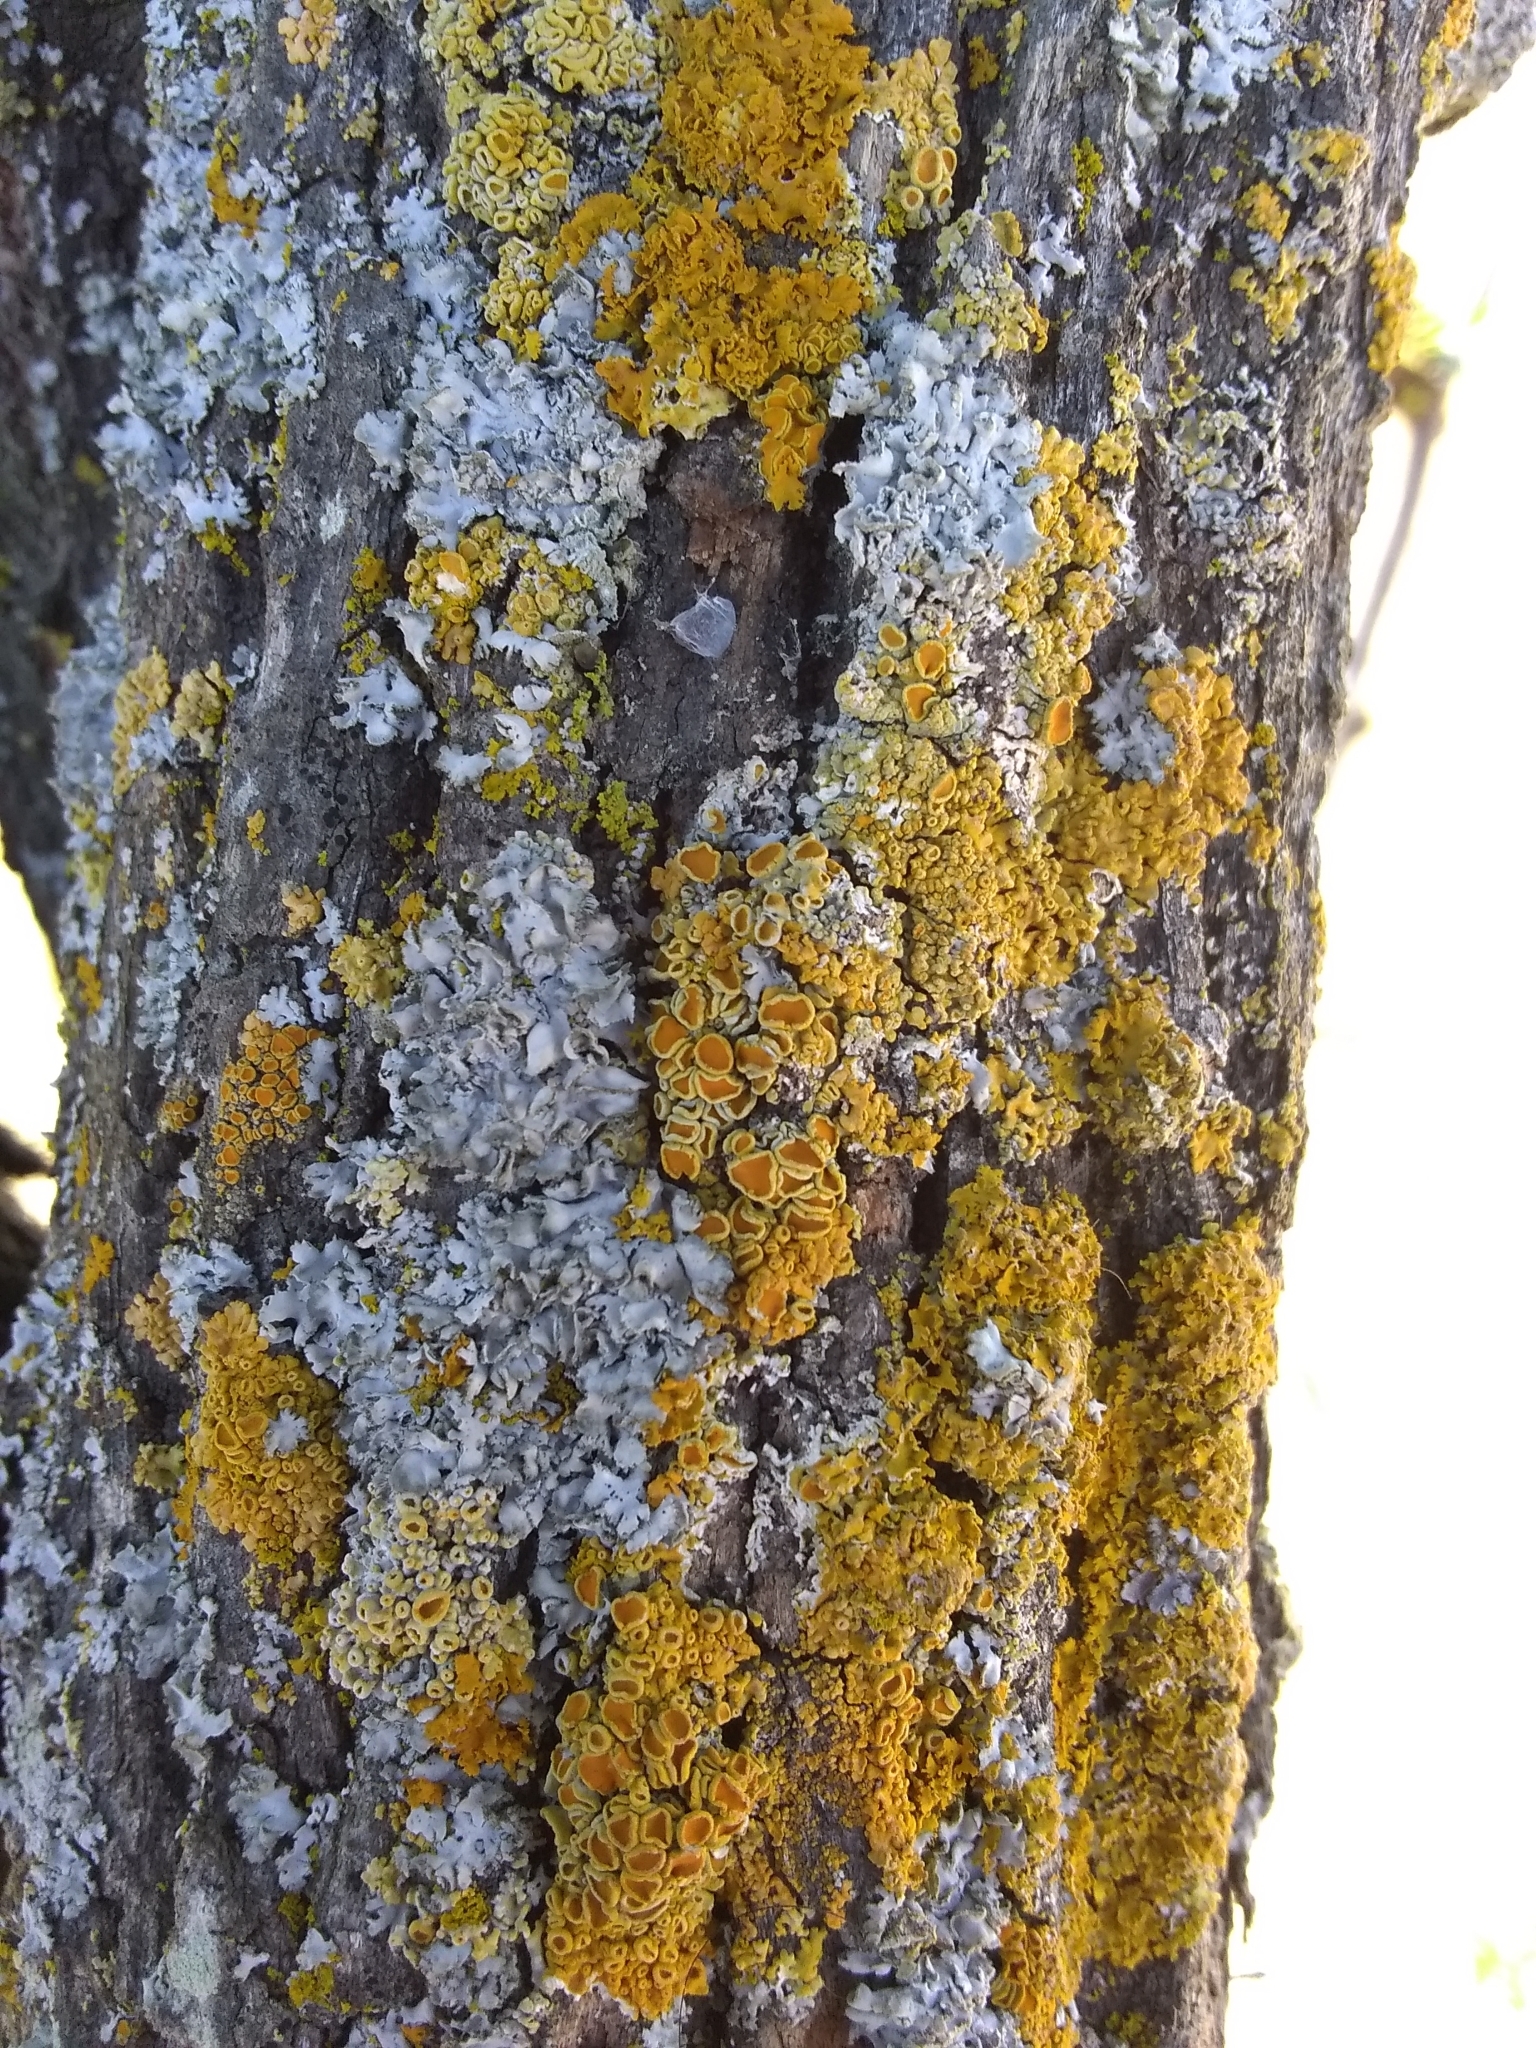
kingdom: Fungi
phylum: Ascomycota
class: Lecanoromycetes
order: Teloschistales
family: Teloschistaceae
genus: Xanthoria
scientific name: Xanthoria parietina
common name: Common orange lichen
